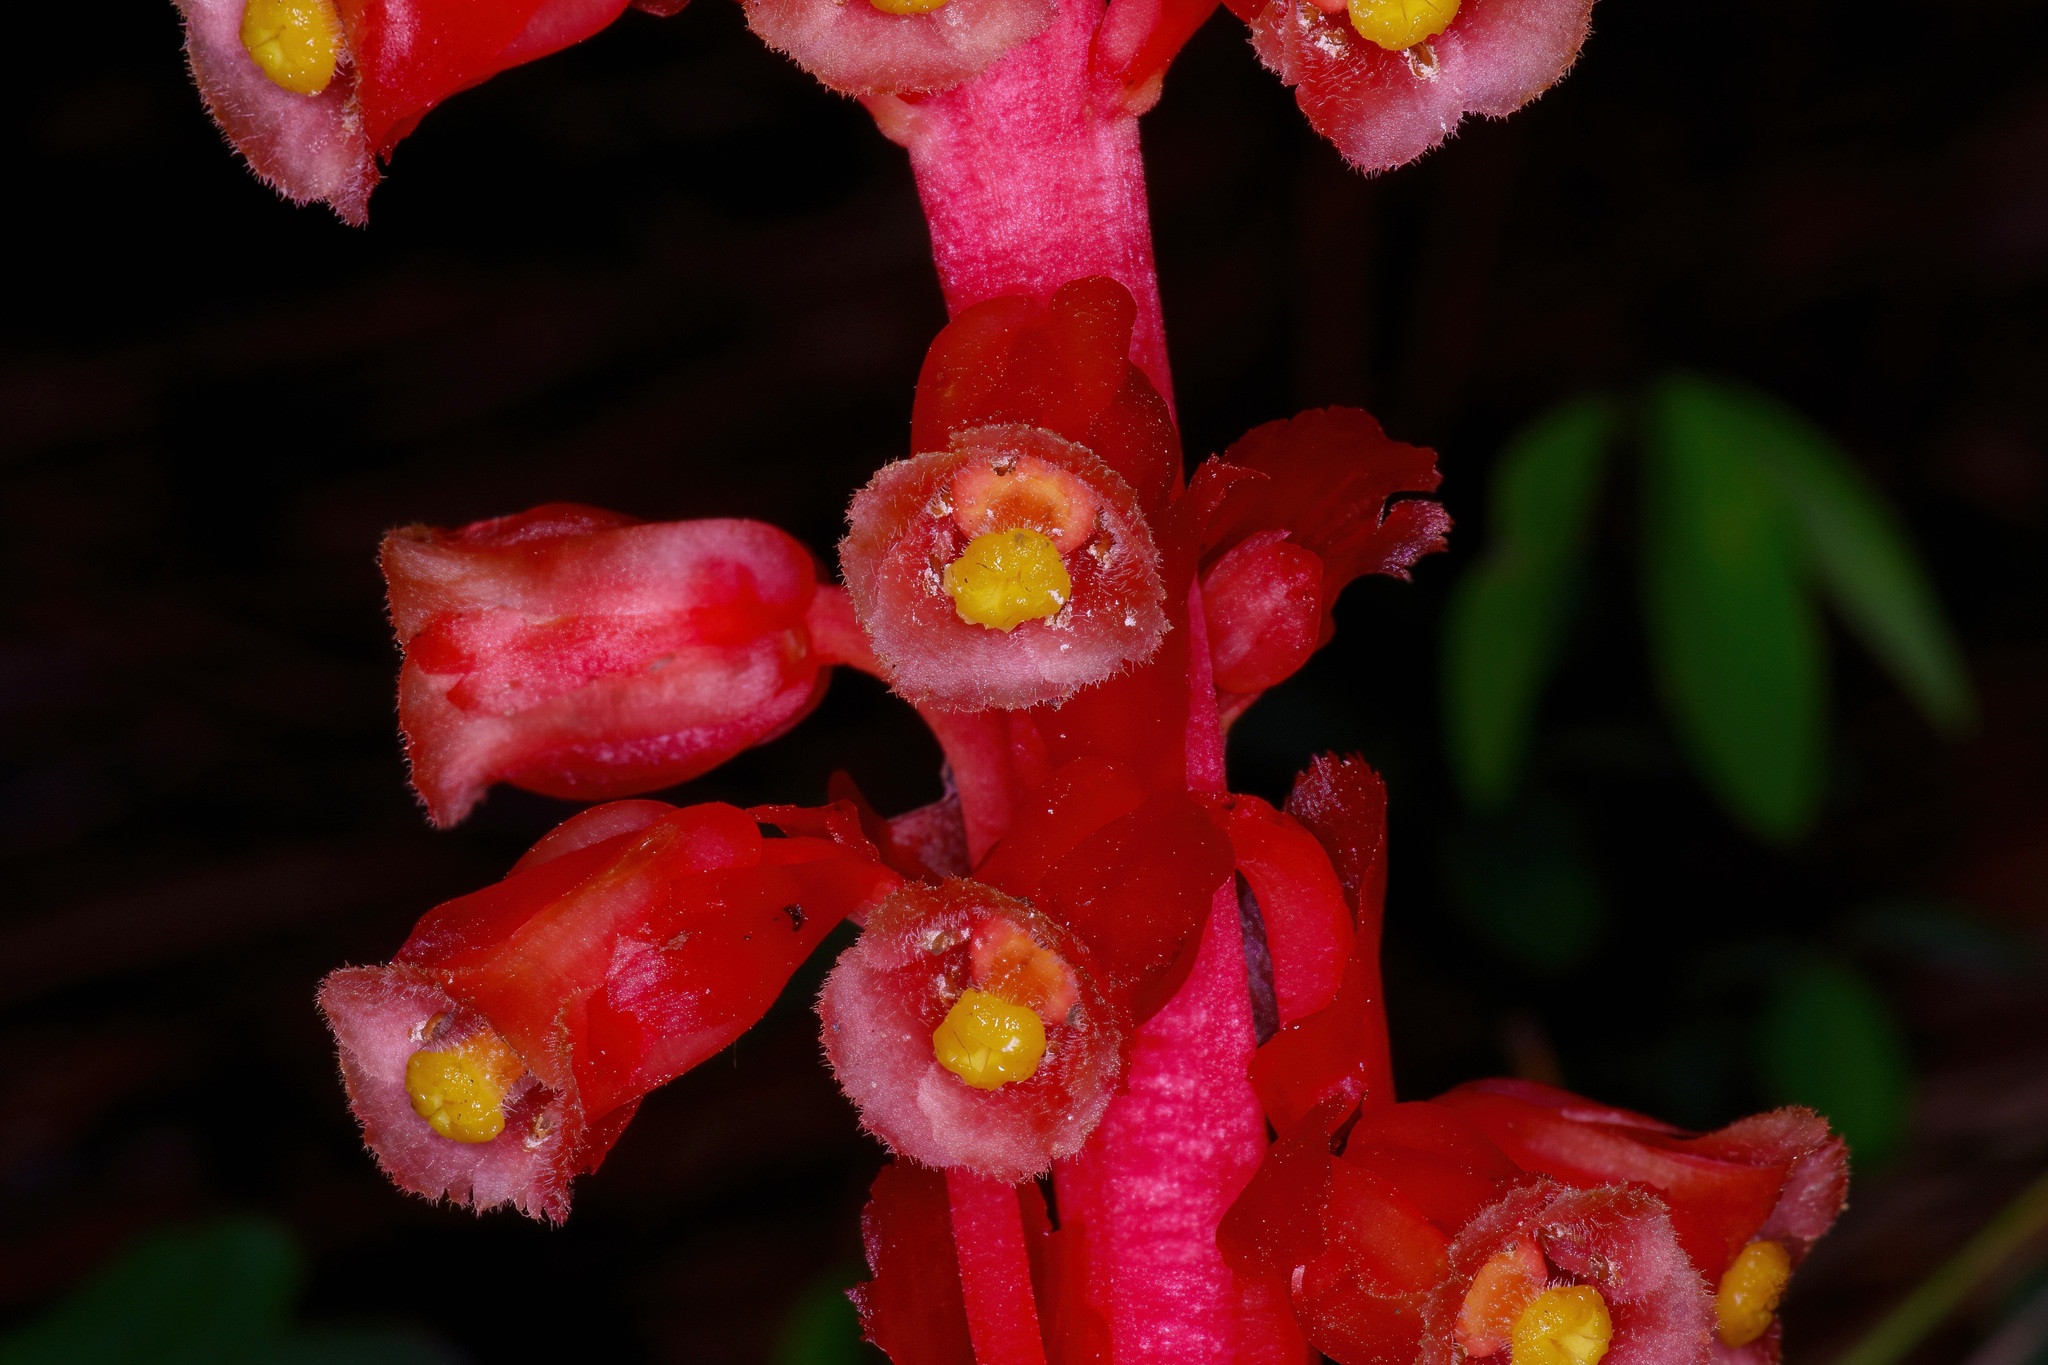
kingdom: Plantae
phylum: Tracheophyta
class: Magnoliopsida
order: Ericales
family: Ericaceae
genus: Hypopitys
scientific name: Hypopitys monotropa
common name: Yellow bird's-nest
